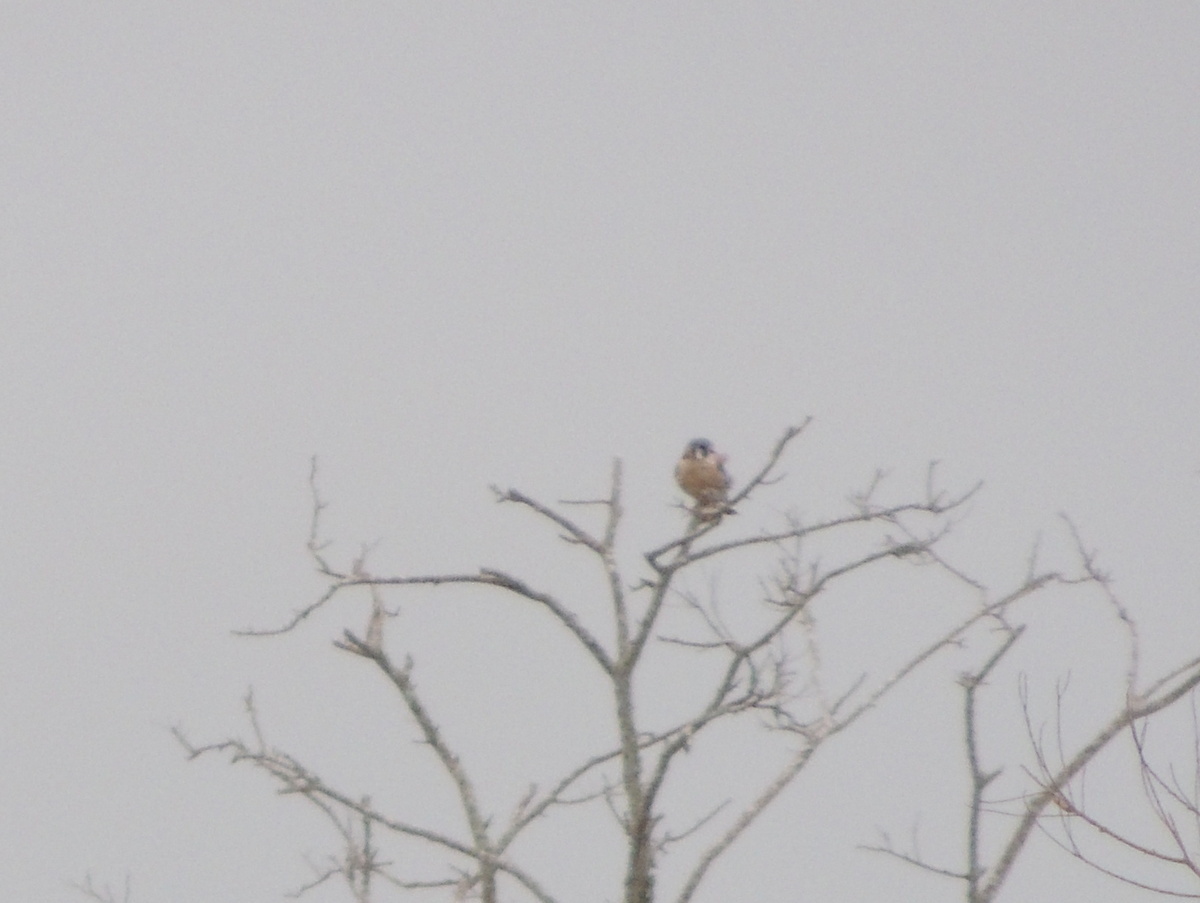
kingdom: Animalia
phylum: Chordata
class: Aves
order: Falconiformes
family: Falconidae
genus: Falco
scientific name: Falco sparverius
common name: American kestrel
